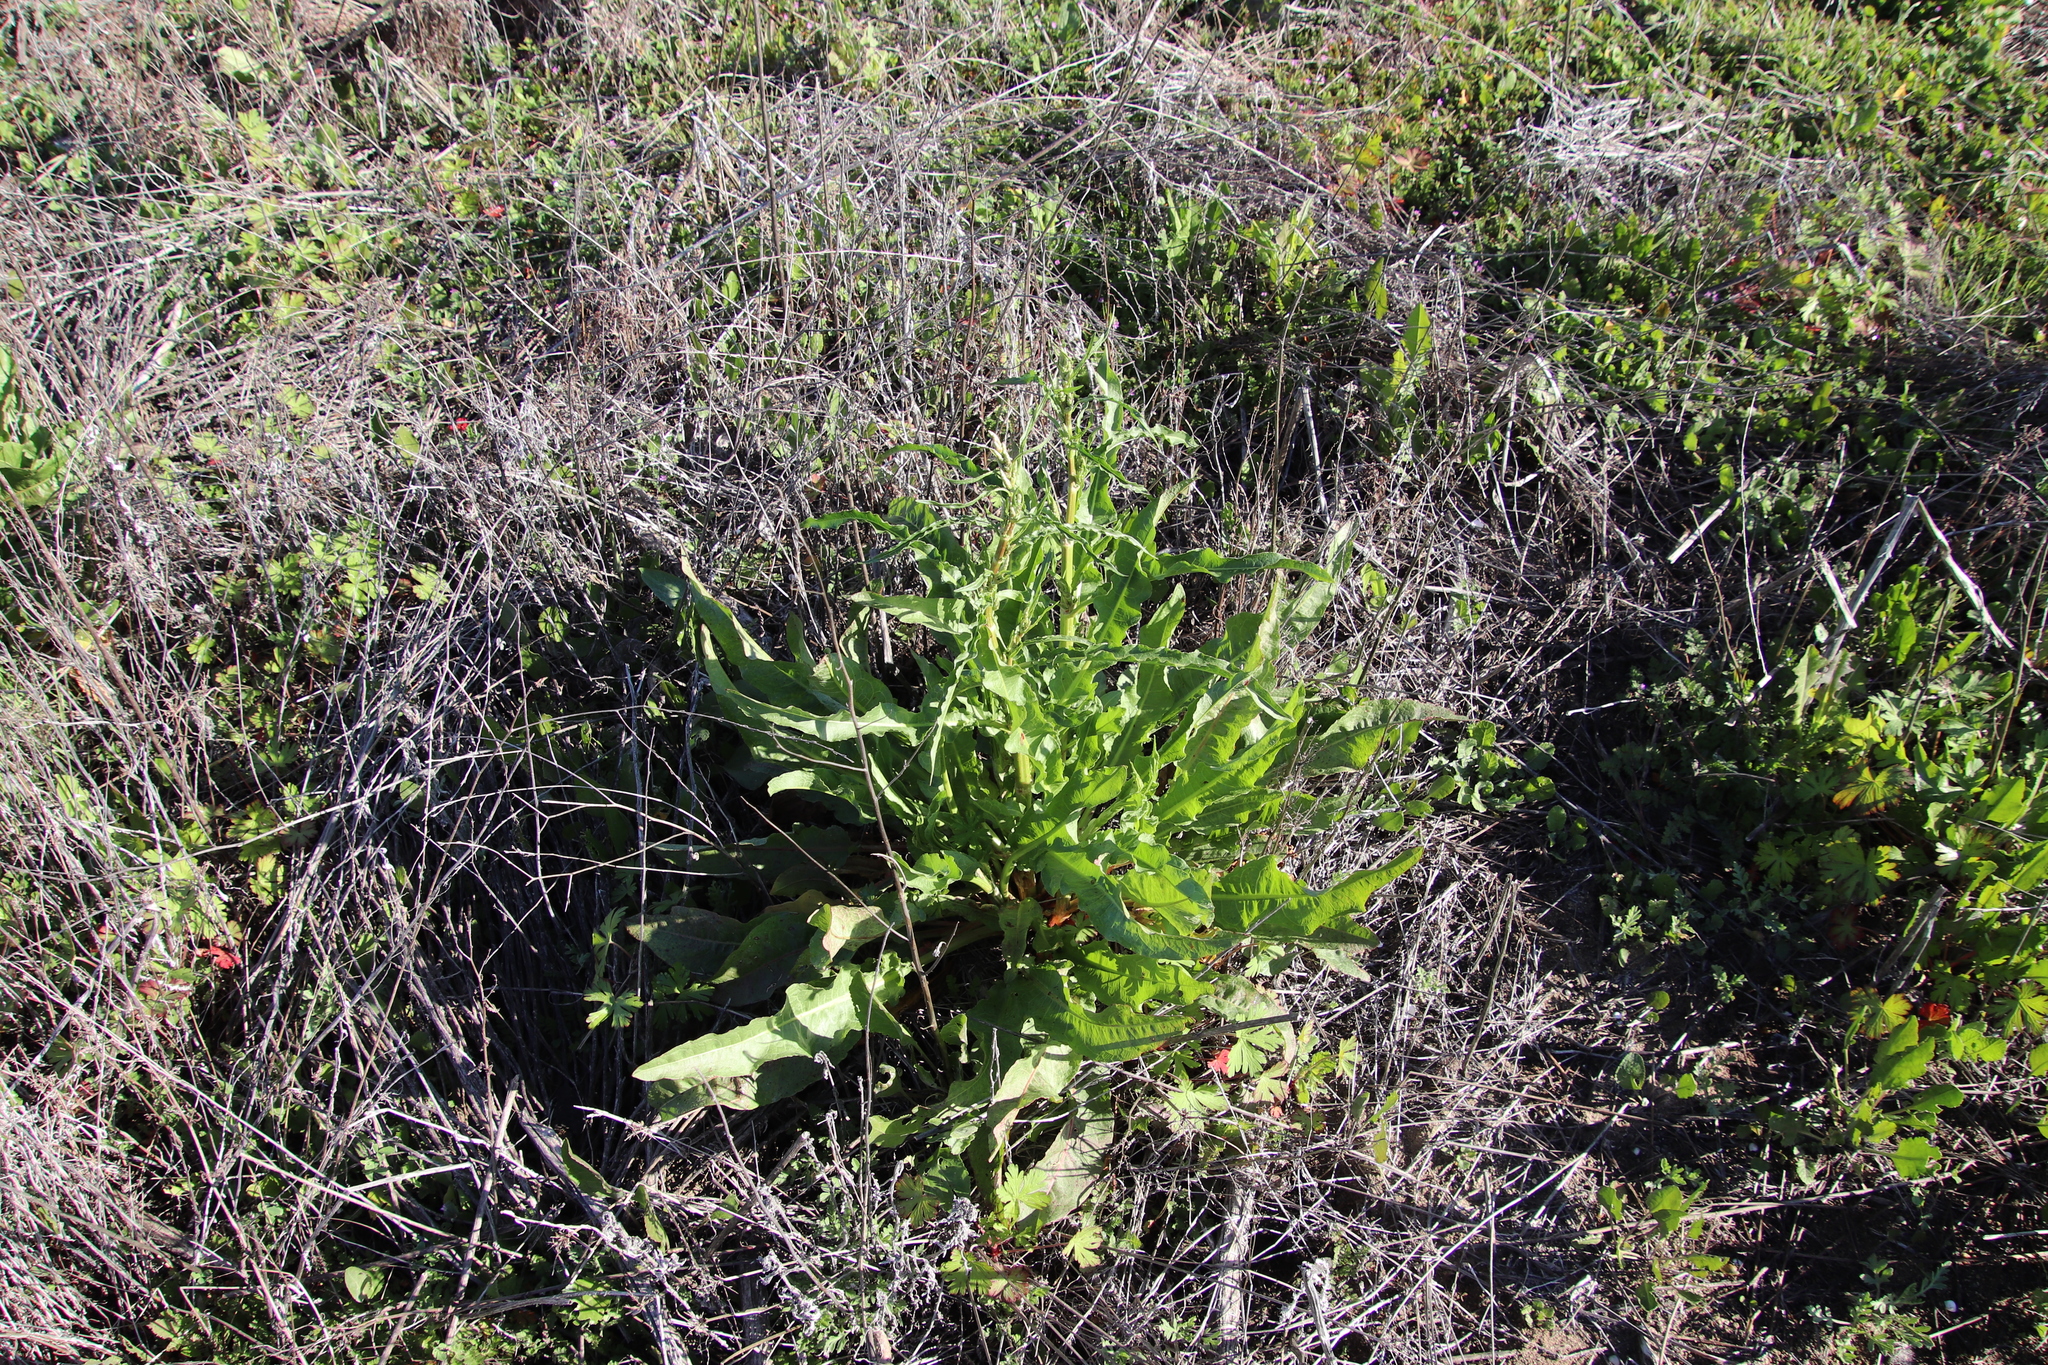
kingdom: Plantae
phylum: Tracheophyta
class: Magnoliopsida
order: Caryophyllales
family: Polygonaceae
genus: Rumex
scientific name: Rumex crispus
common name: Curled dock
